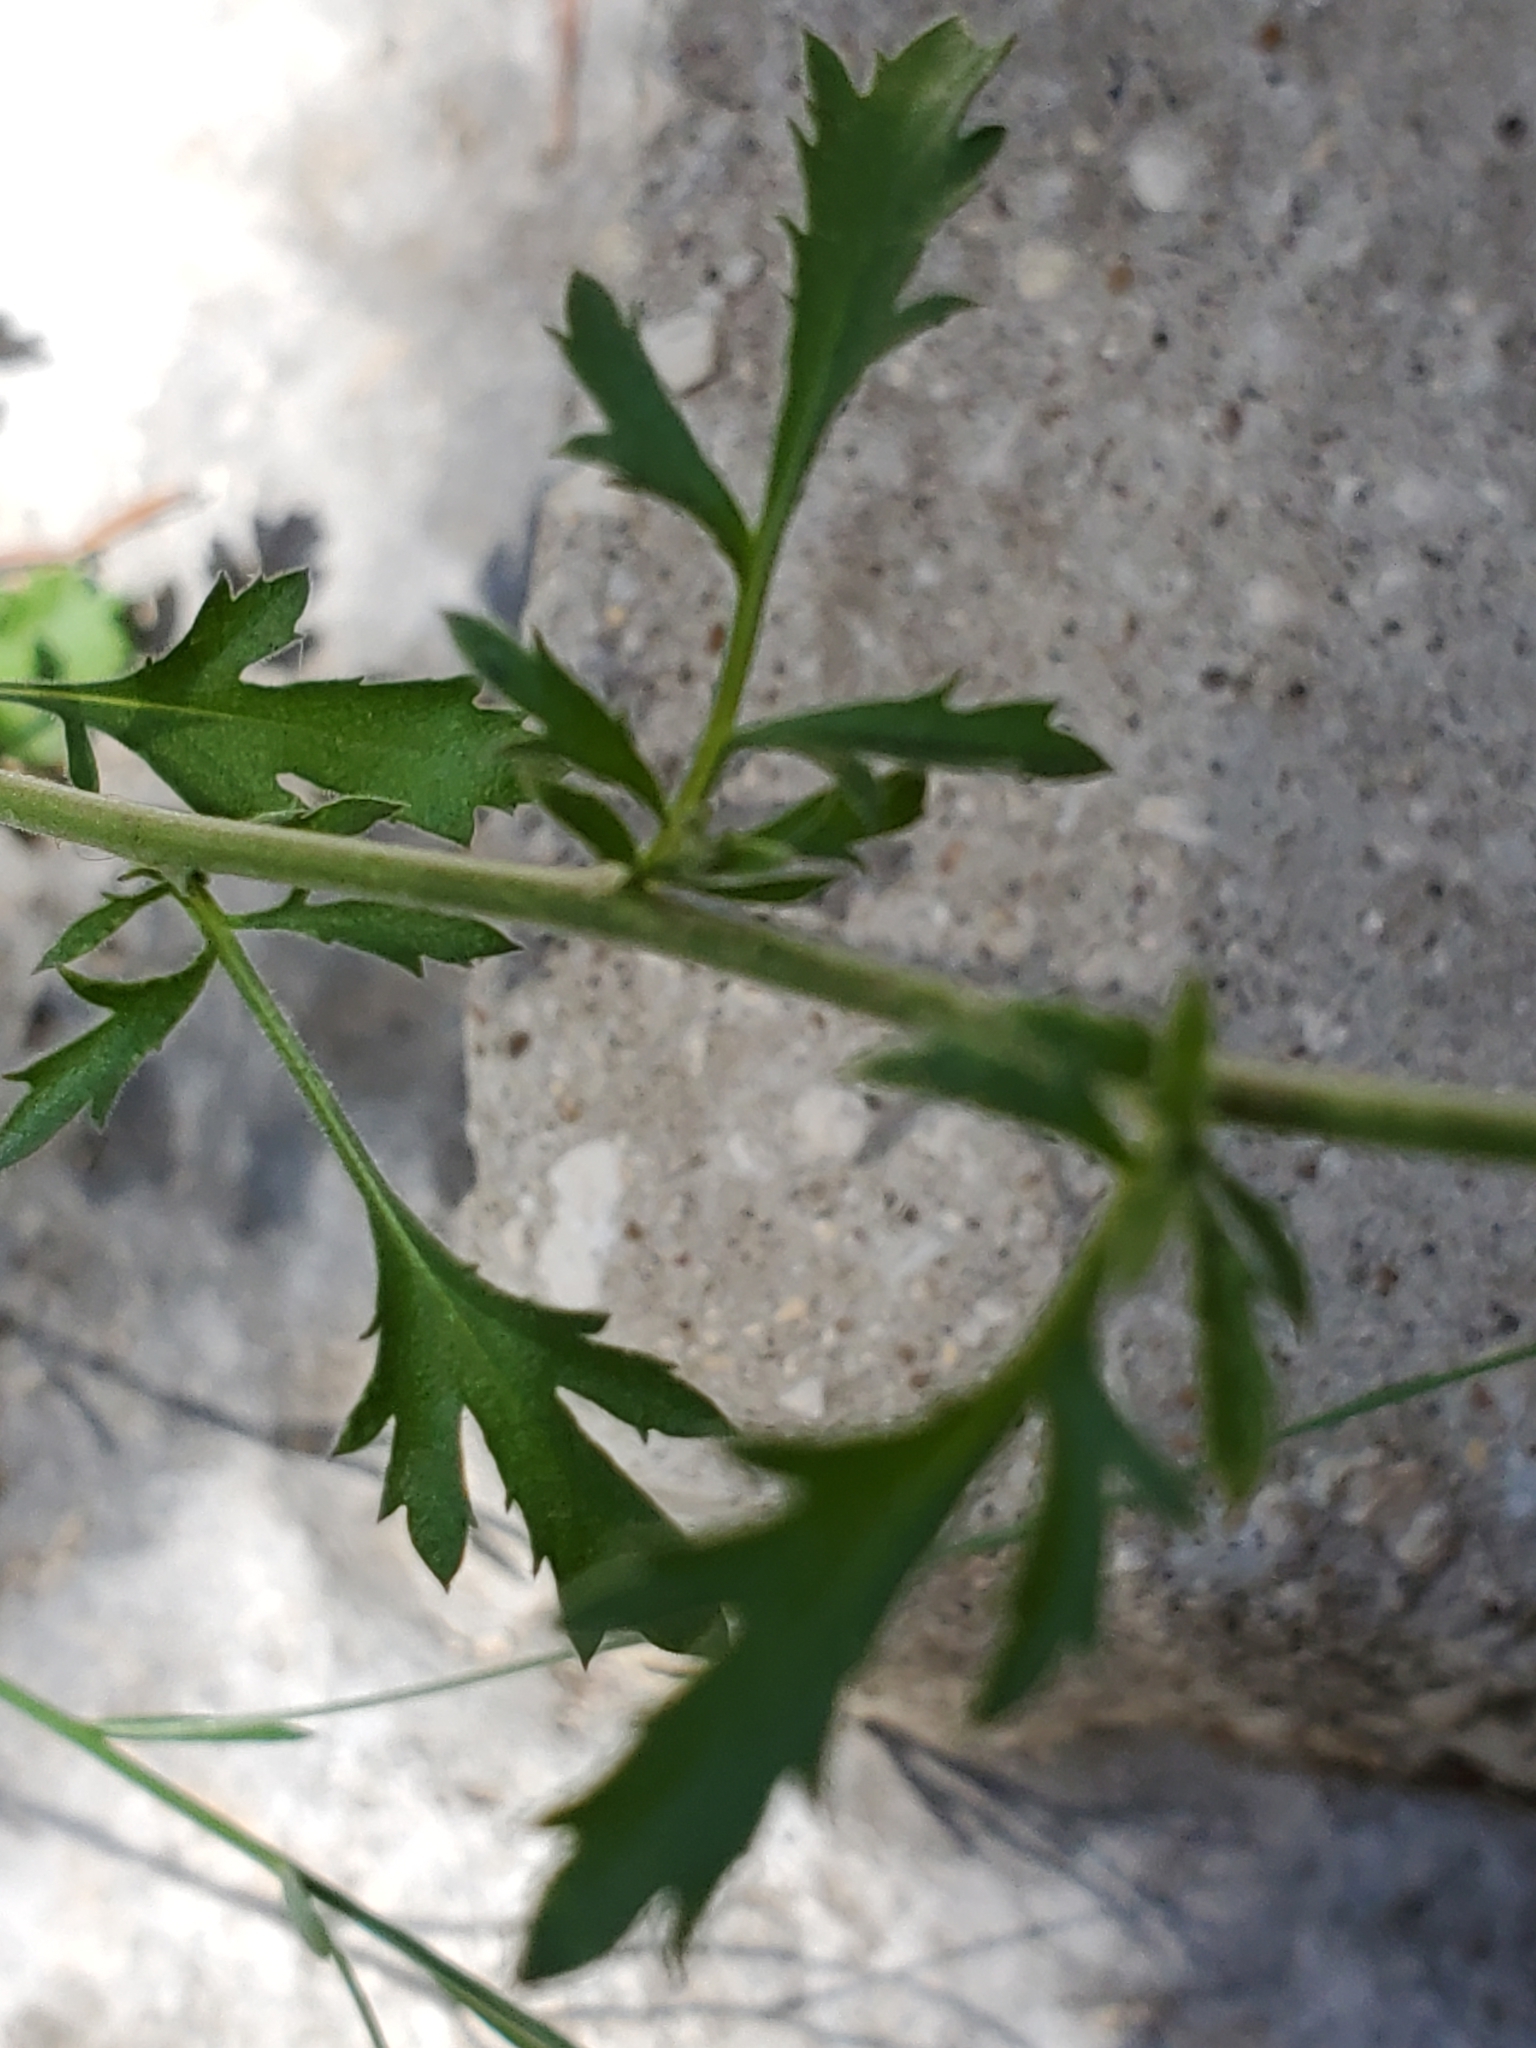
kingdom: Plantae
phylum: Tracheophyta
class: Magnoliopsida
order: Ericales
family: Polemoniaceae
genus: Giliastrum
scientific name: Giliastrum incisum
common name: Splitleaf gilia
